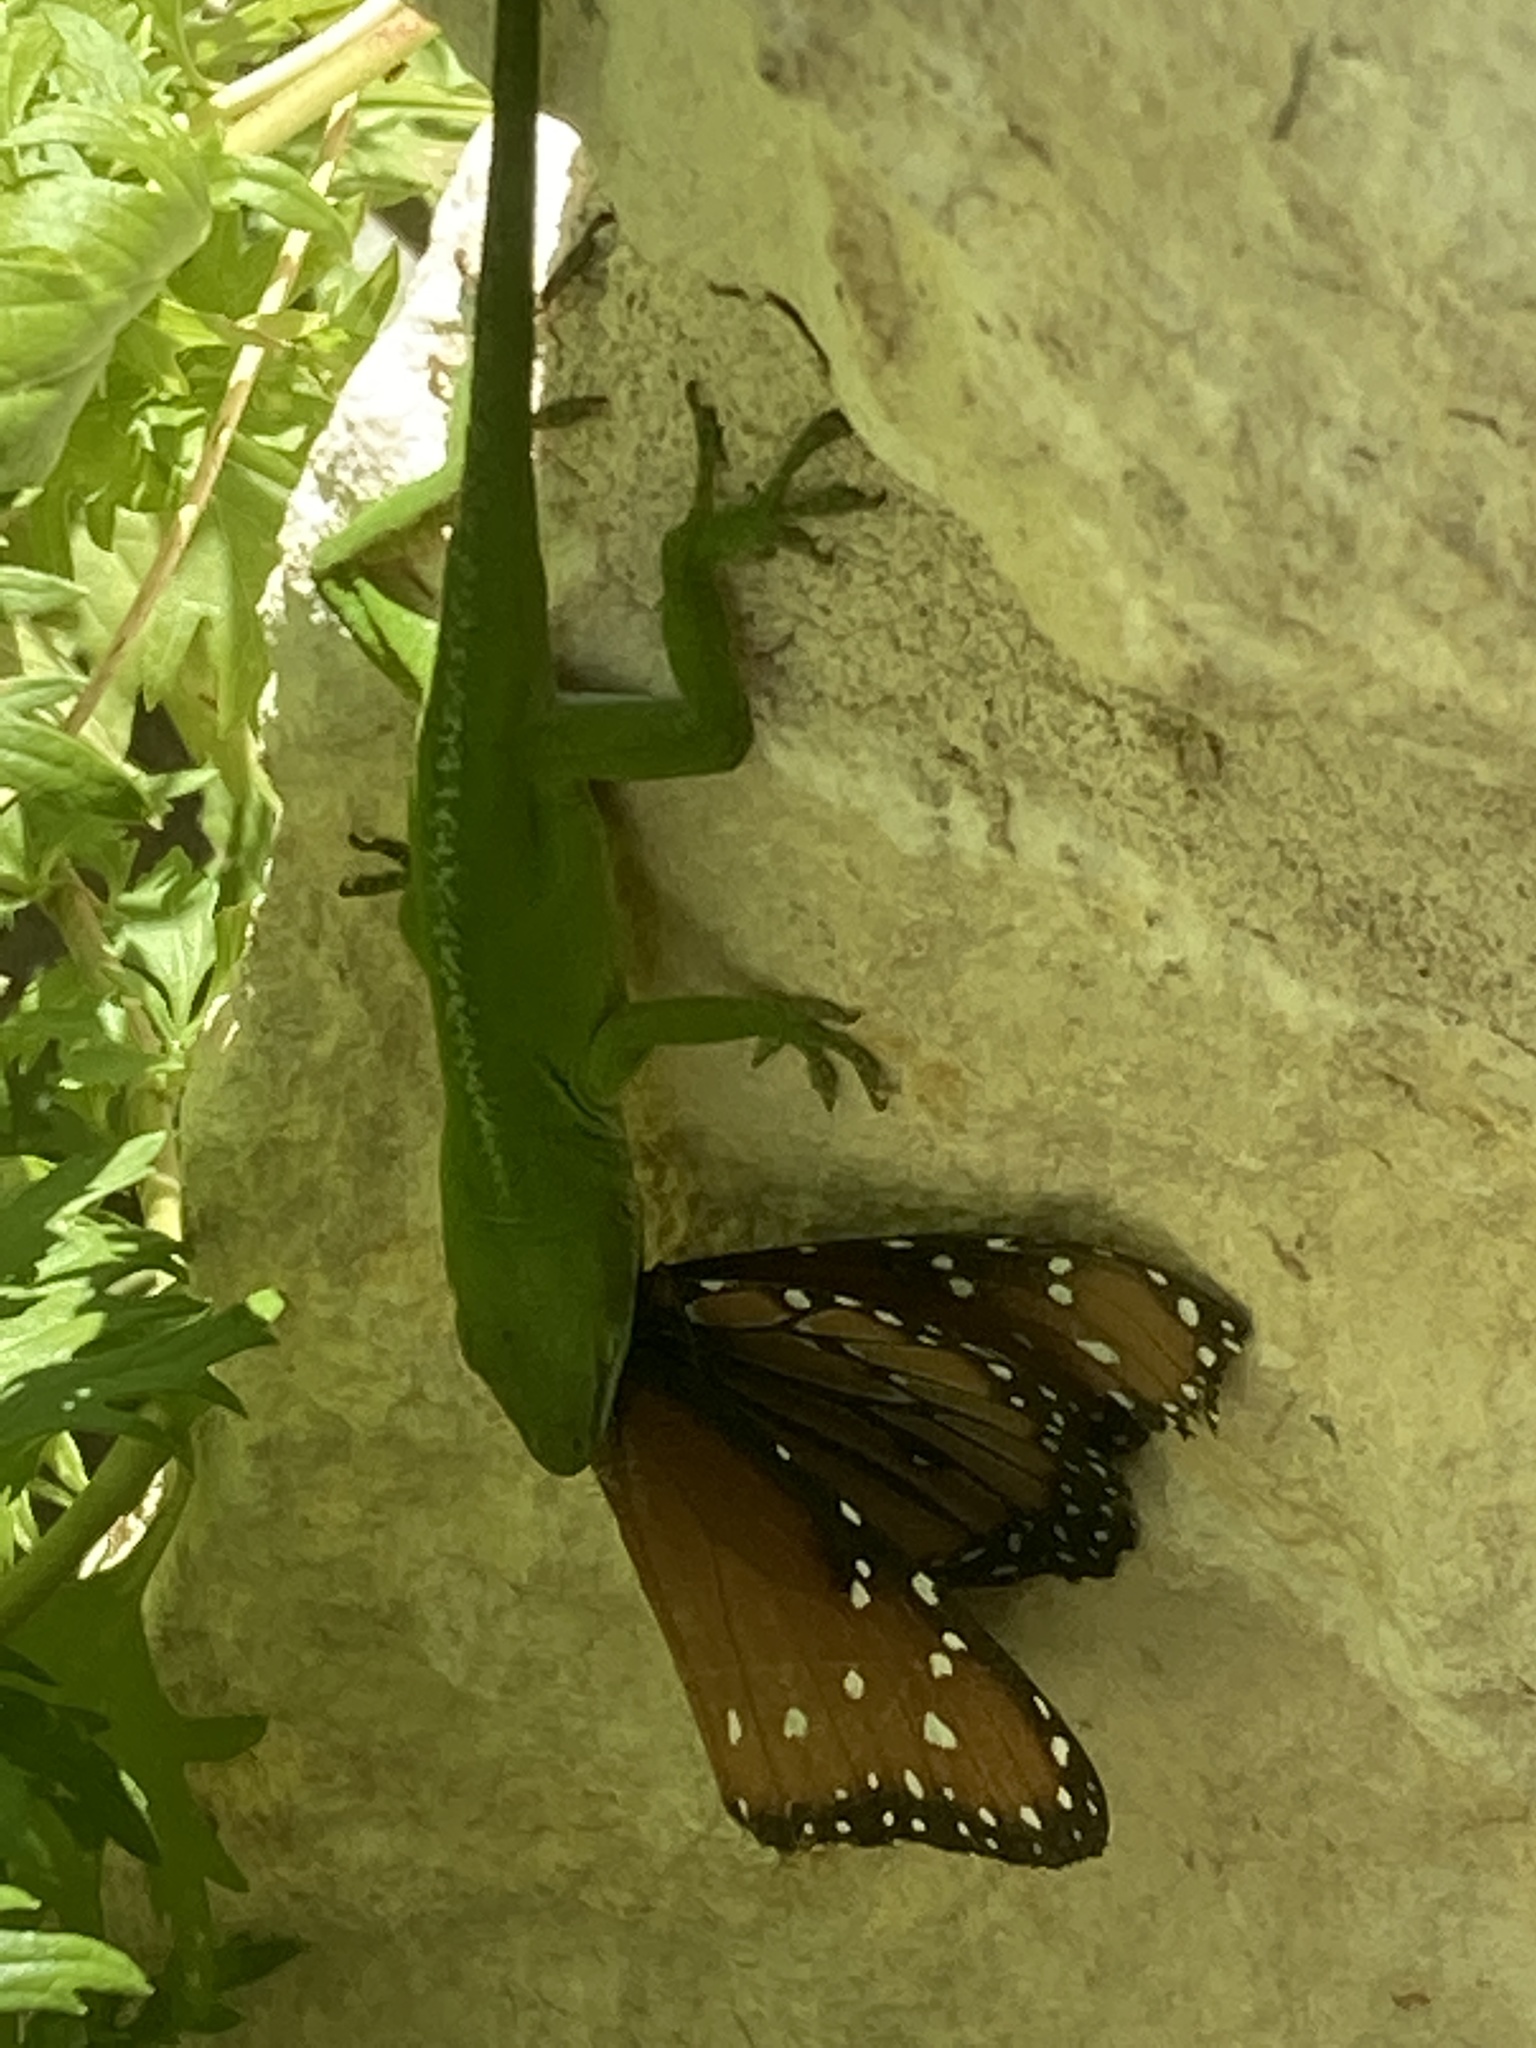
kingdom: Animalia
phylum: Chordata
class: Squamata
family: Dactyloidae
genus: Anolis
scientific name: Anolis carolinensis
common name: Green anole
